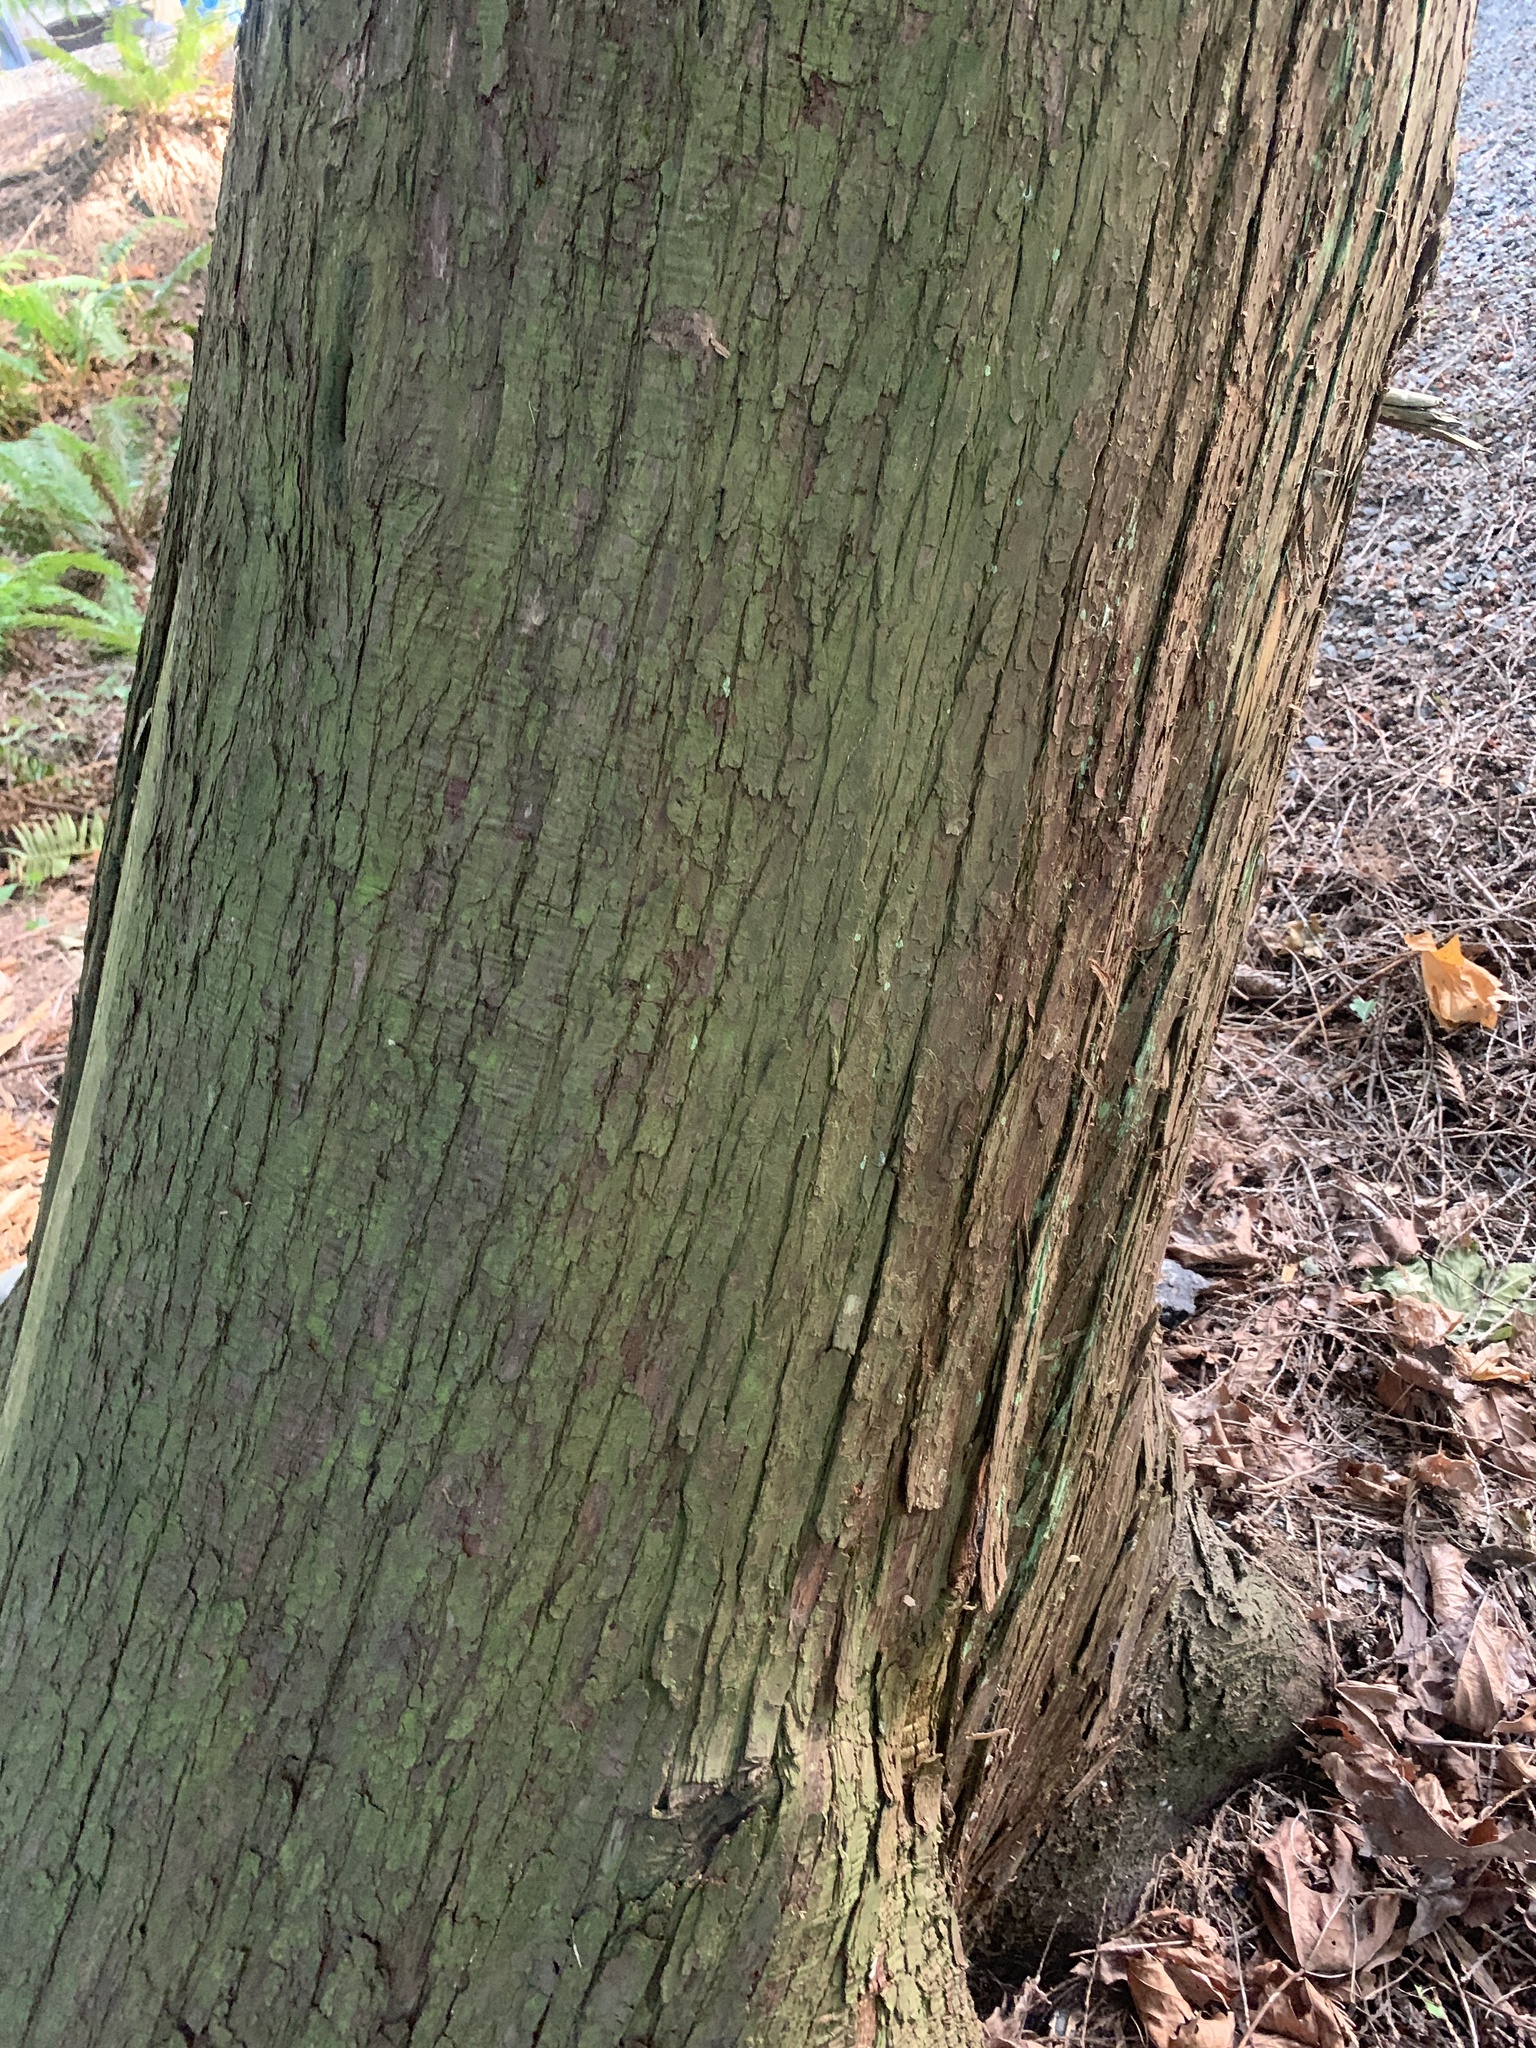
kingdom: Plantae
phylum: Tracheophyta
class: Pinopsida
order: Pinales
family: Cupressaceae
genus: Thuja
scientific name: Thuja plicata
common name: Western red-cedar
